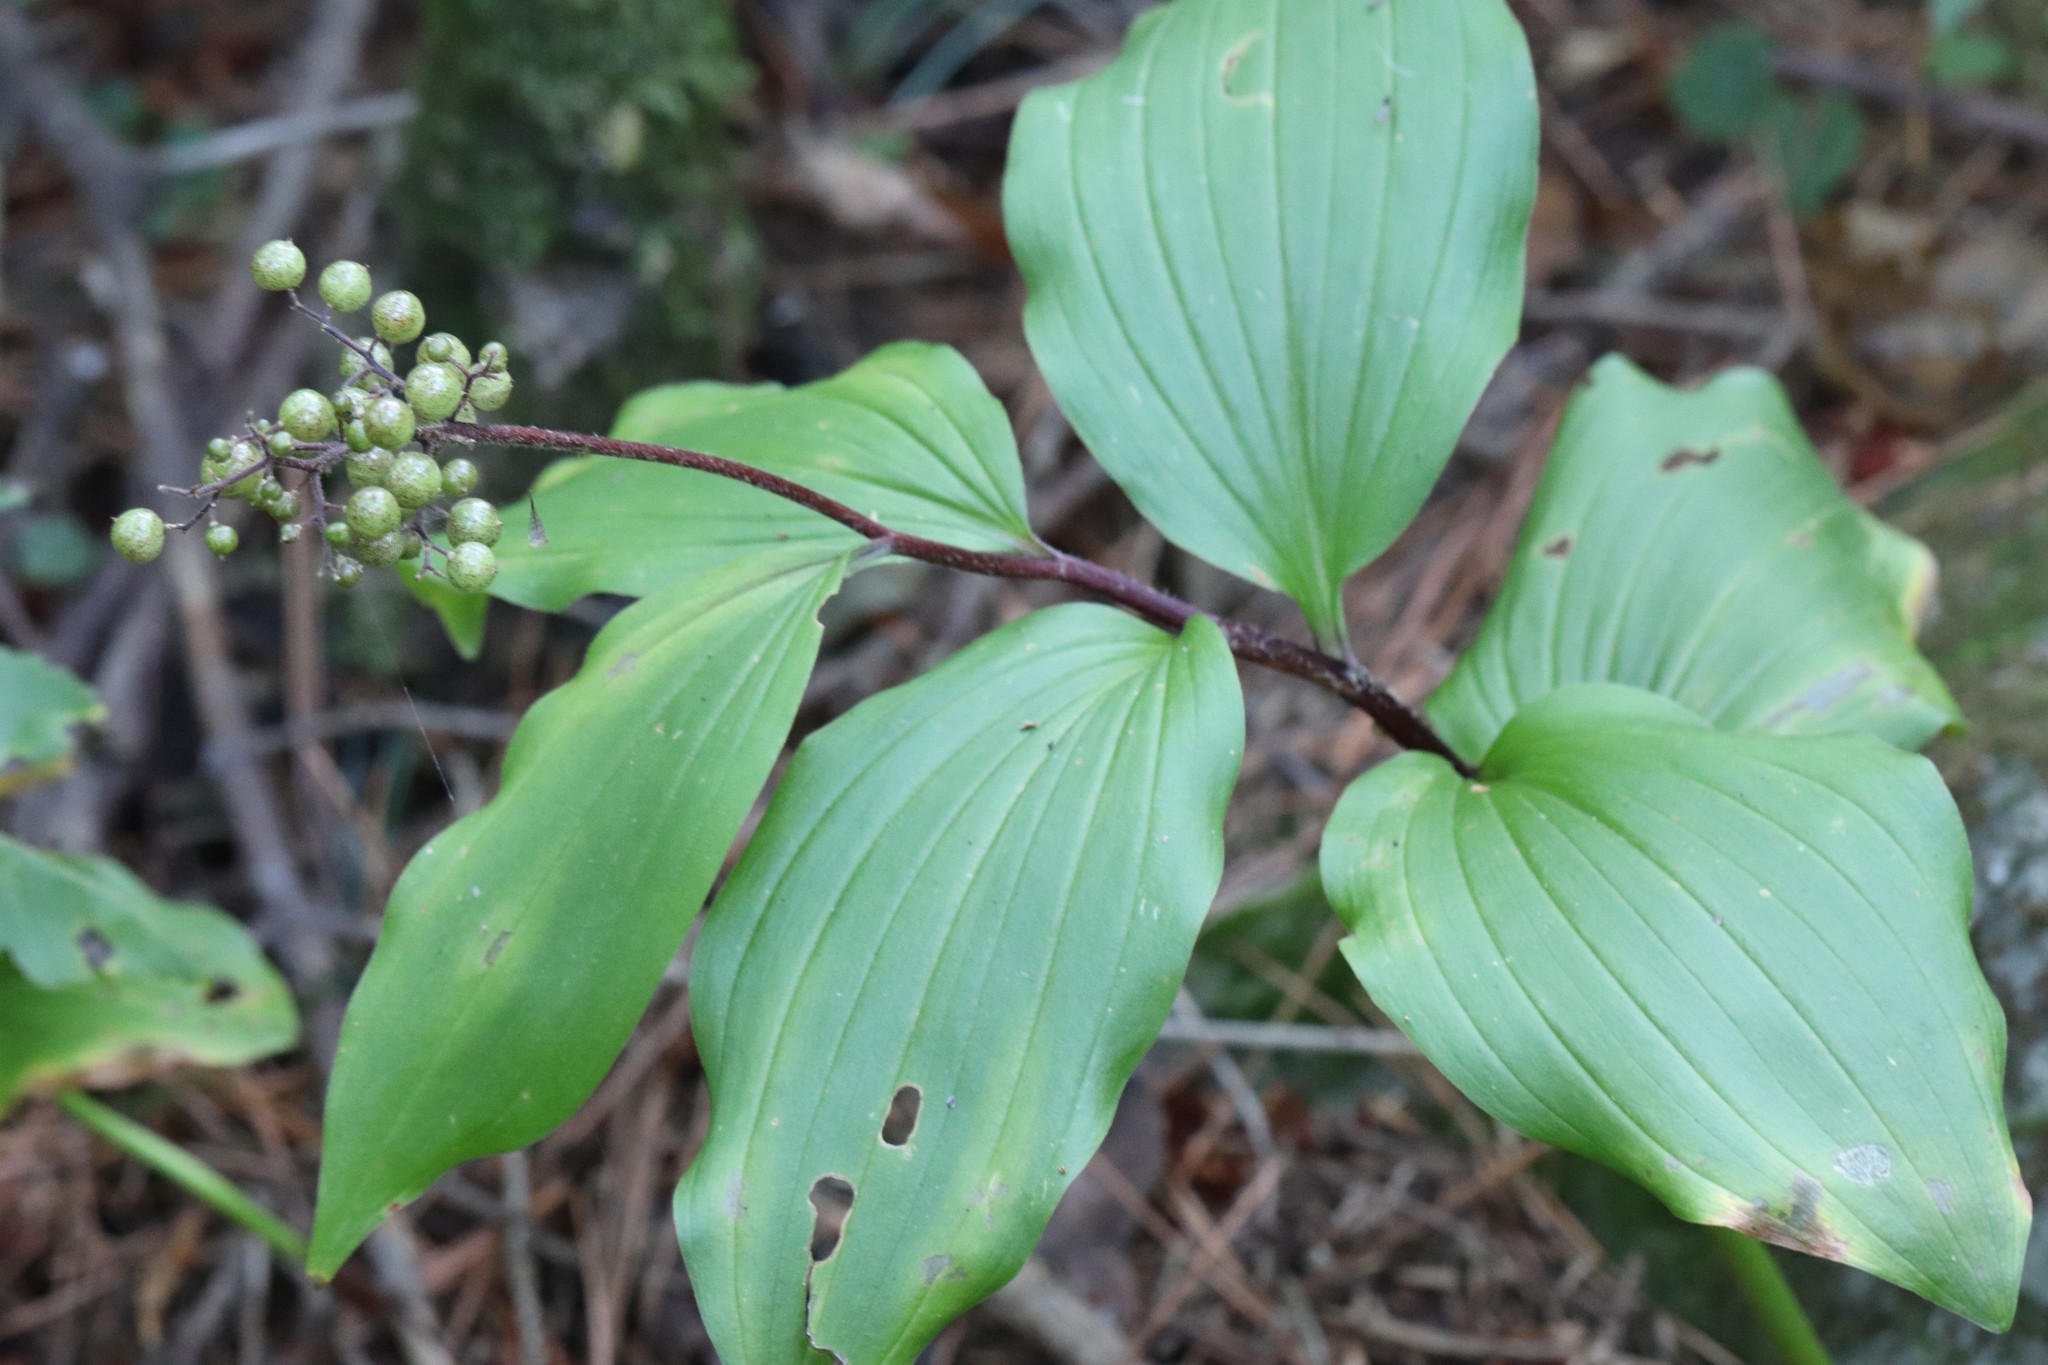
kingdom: Plantae
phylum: Tracheophyta
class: Liliopsida
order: Asparagales
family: Asparagaceae
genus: Maianthemum
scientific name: Maianthemum japonicum
